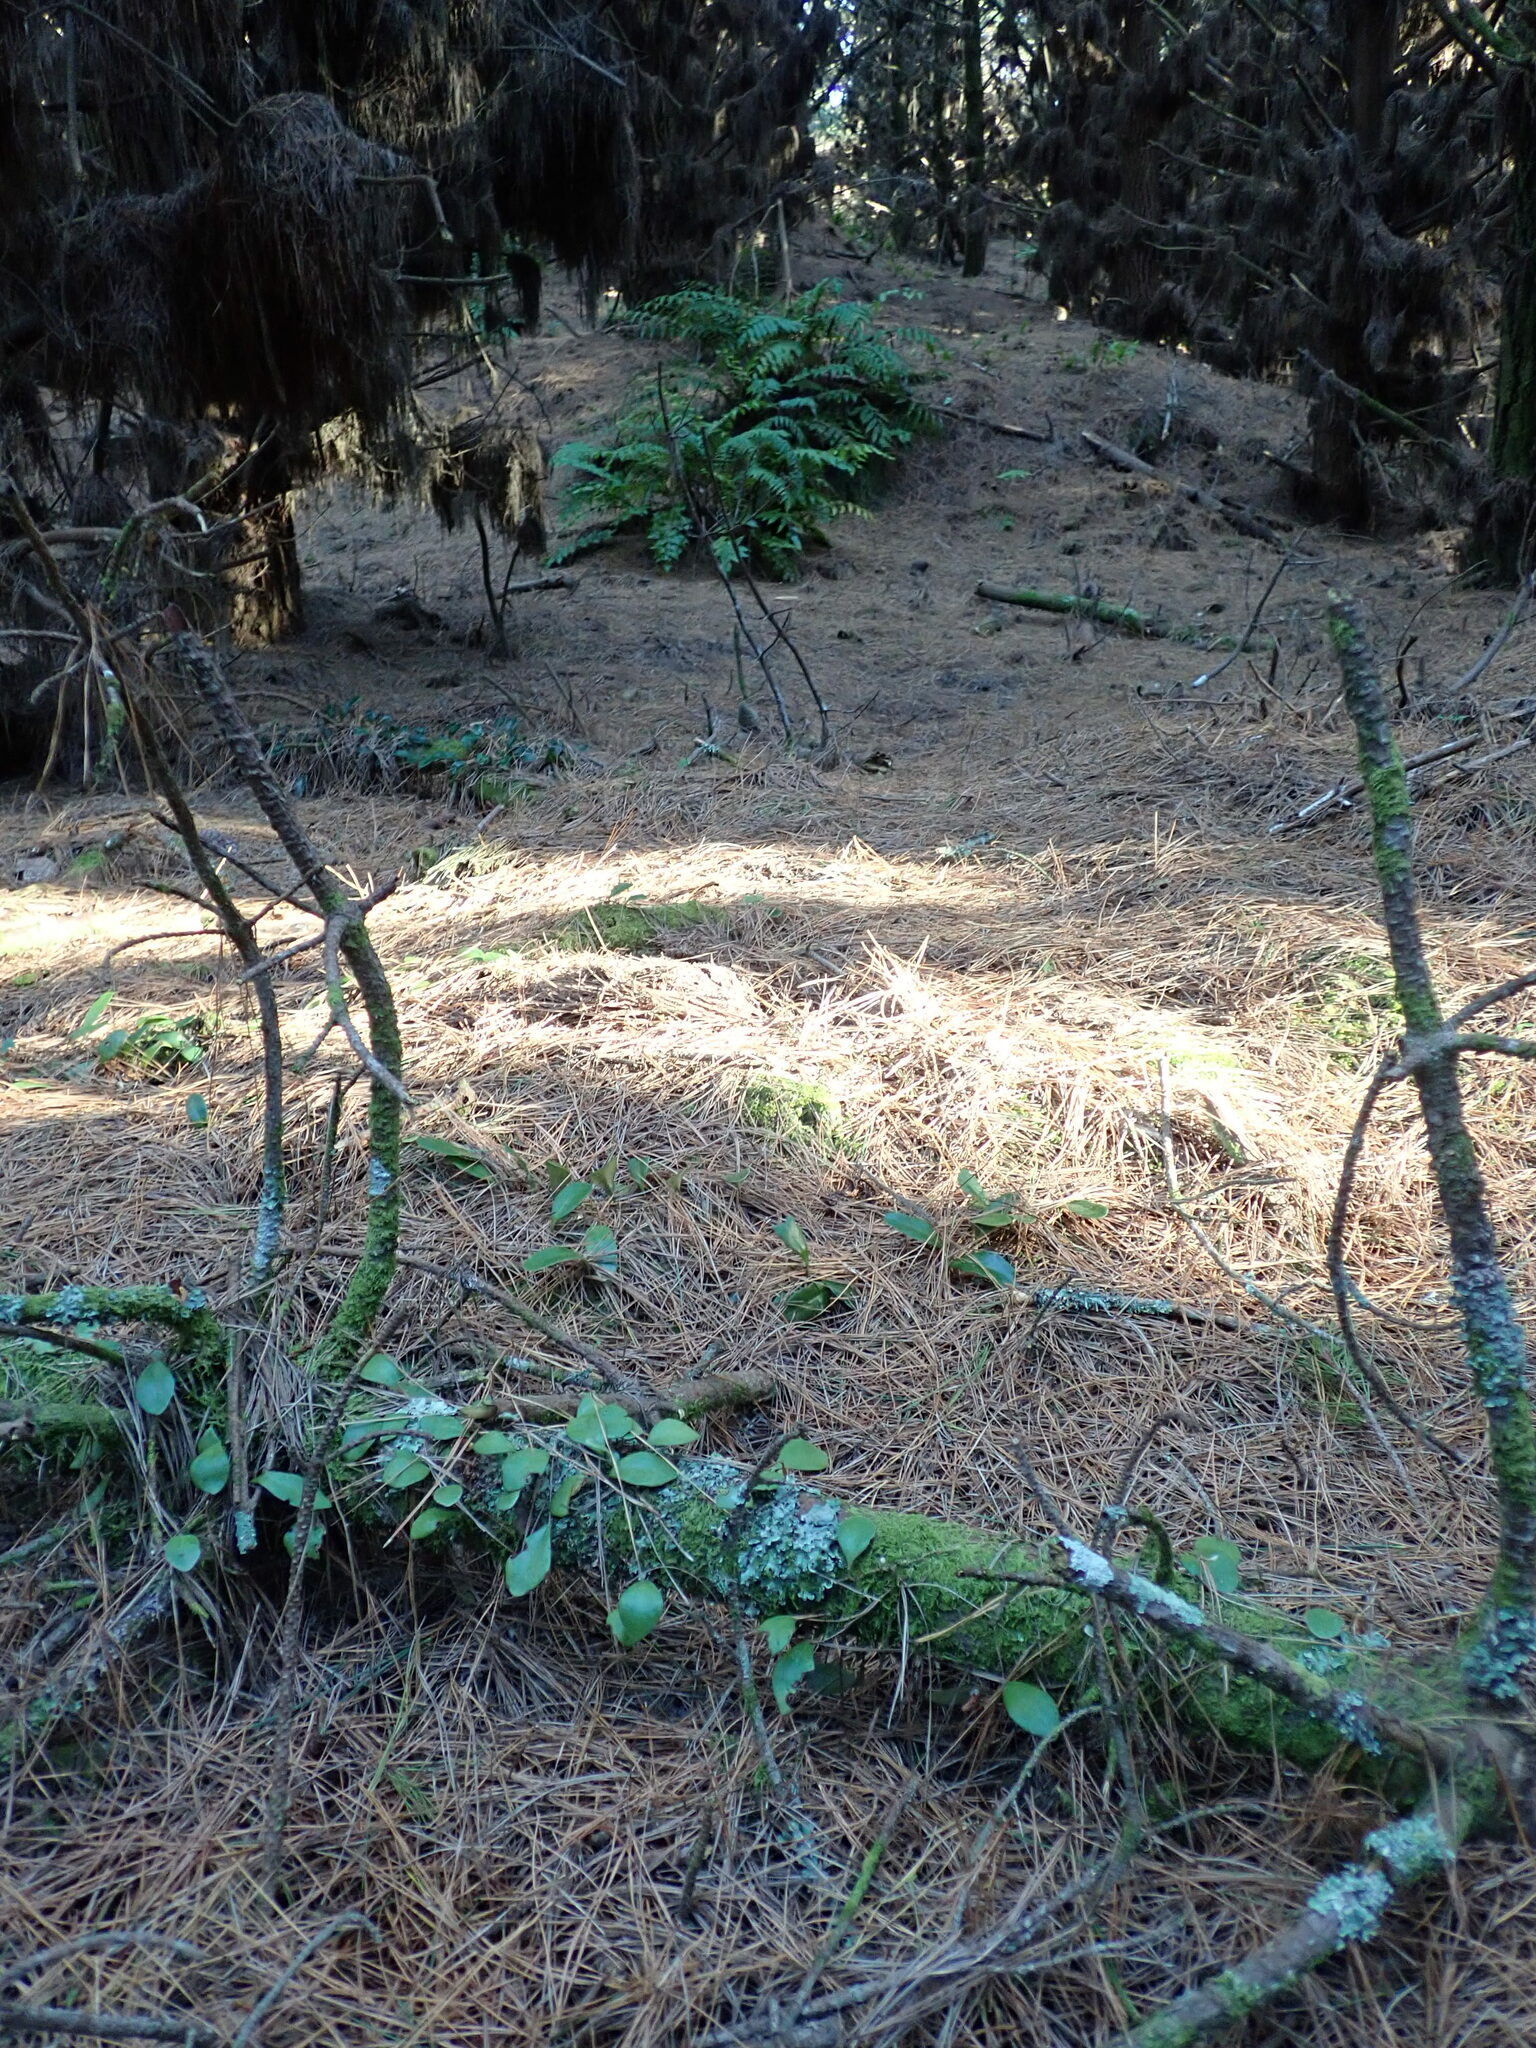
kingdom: Plantae
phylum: Tracheophyta
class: Polypodiopsida
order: Polypodiales
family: Polypodiaceae
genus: Pyrrosia
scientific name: Pyrrosia eleagnifolia
